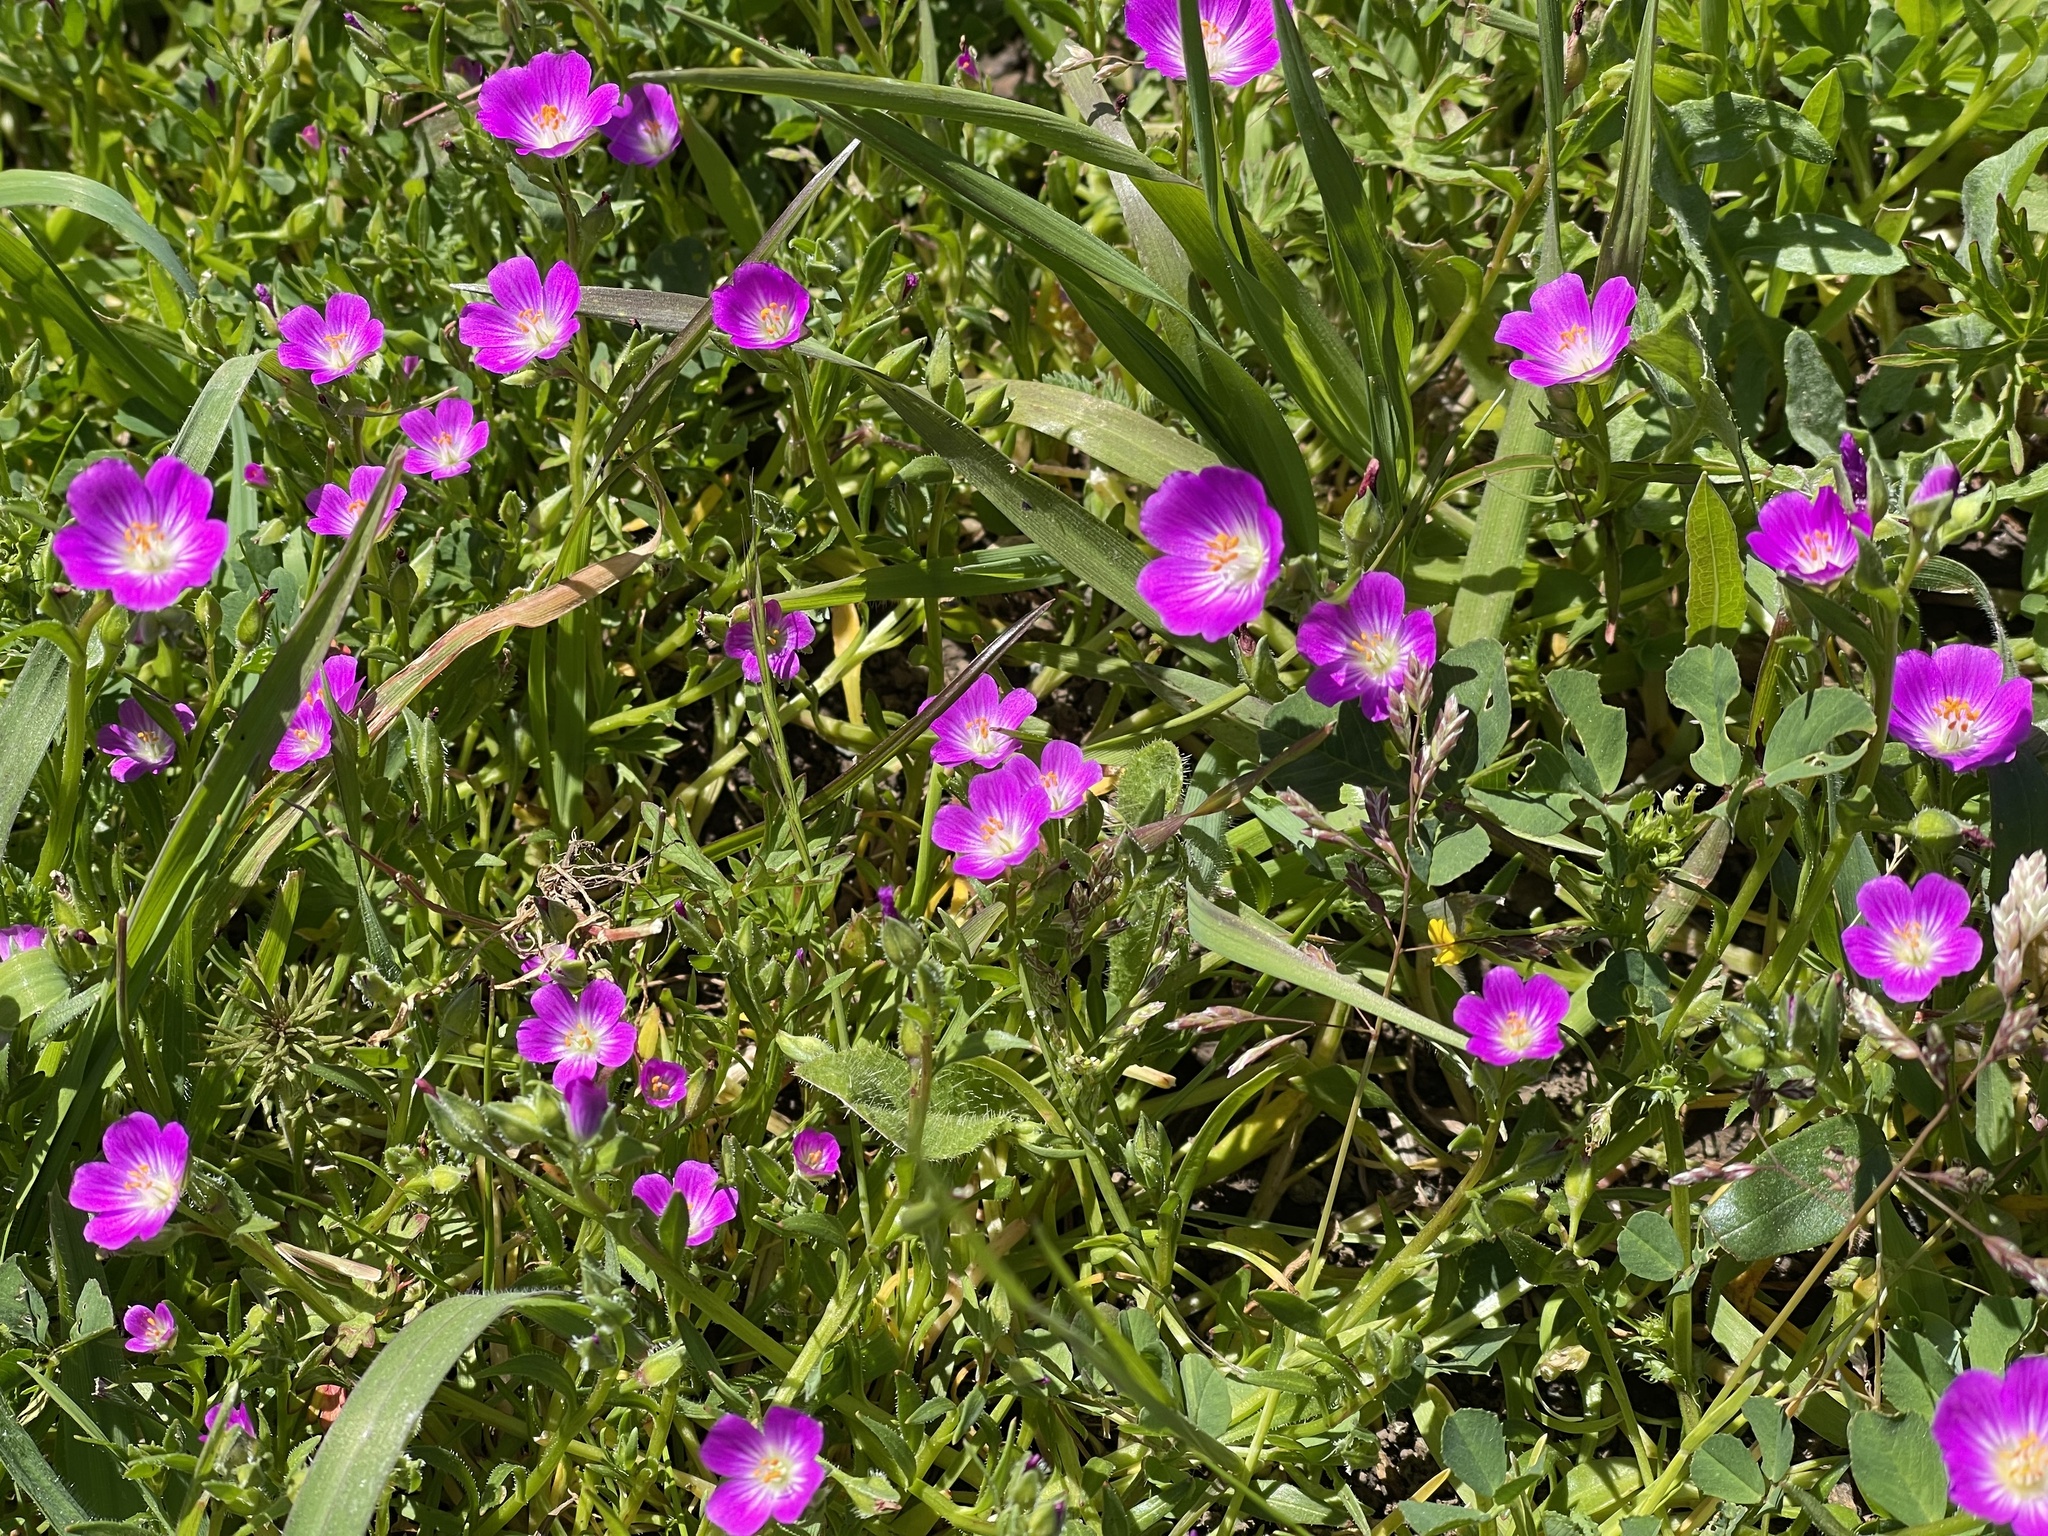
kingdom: Plantae
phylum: Tracheophyta
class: Magnoliopsida
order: Caryophyllales
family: Montiaceae
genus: Calandrinia
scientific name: Calandrinia menziesii
